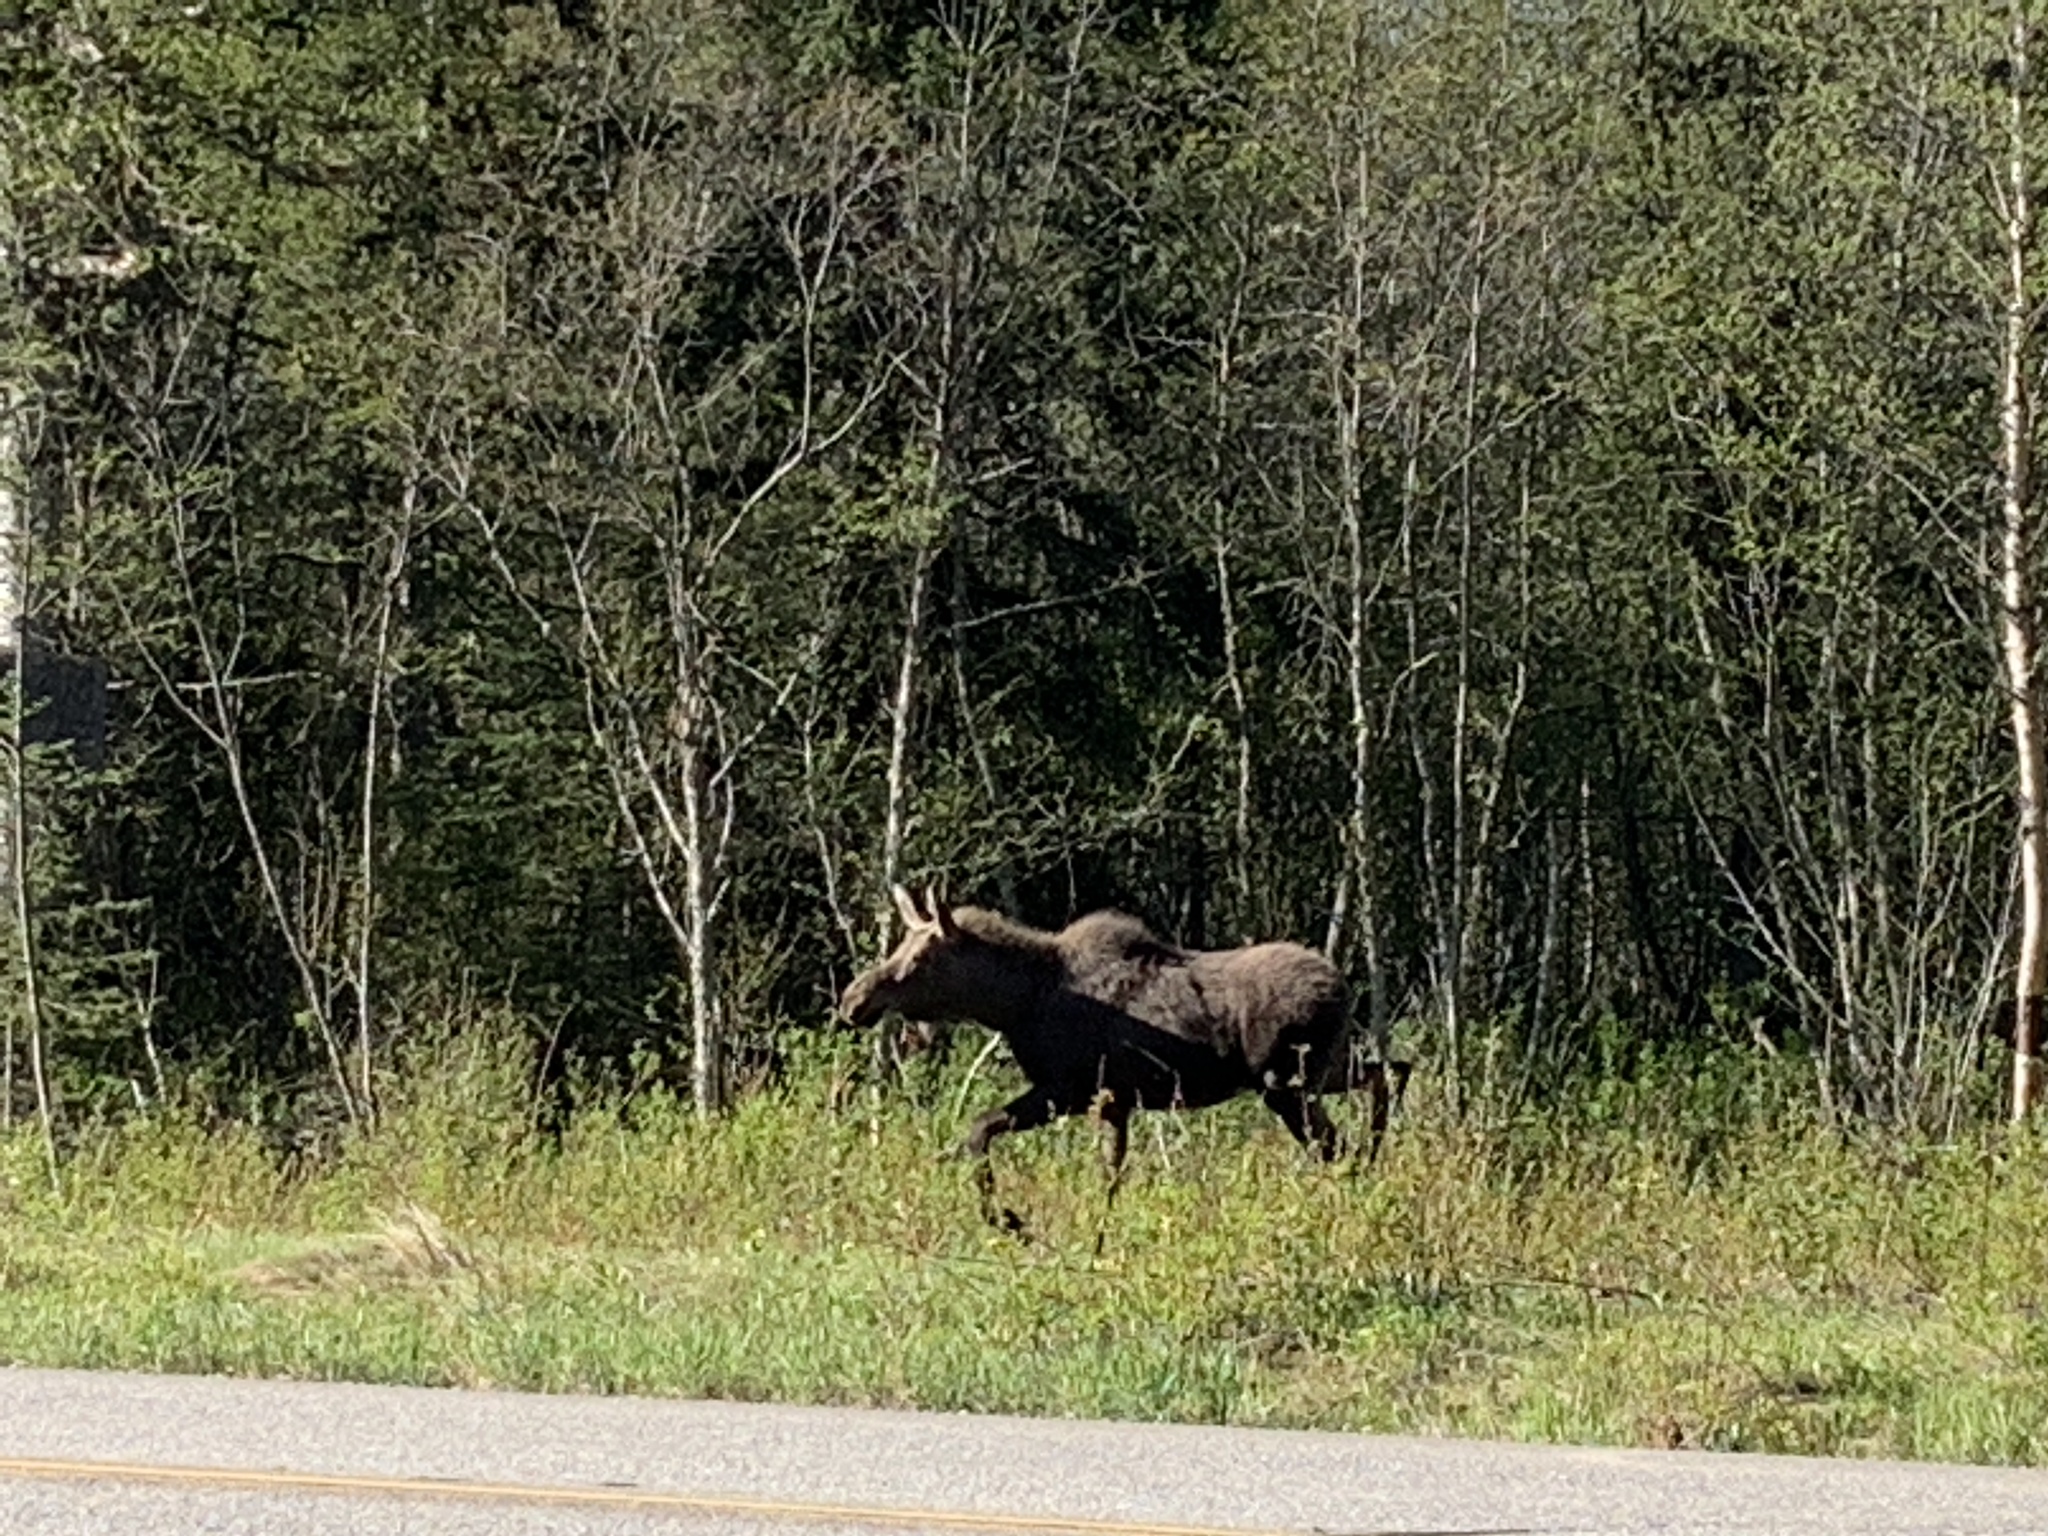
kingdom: Animalia
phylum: Chordata
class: Mammalia
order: Artiodactyla
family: Cervidae
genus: Alces
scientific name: Alces alces
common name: Moose
